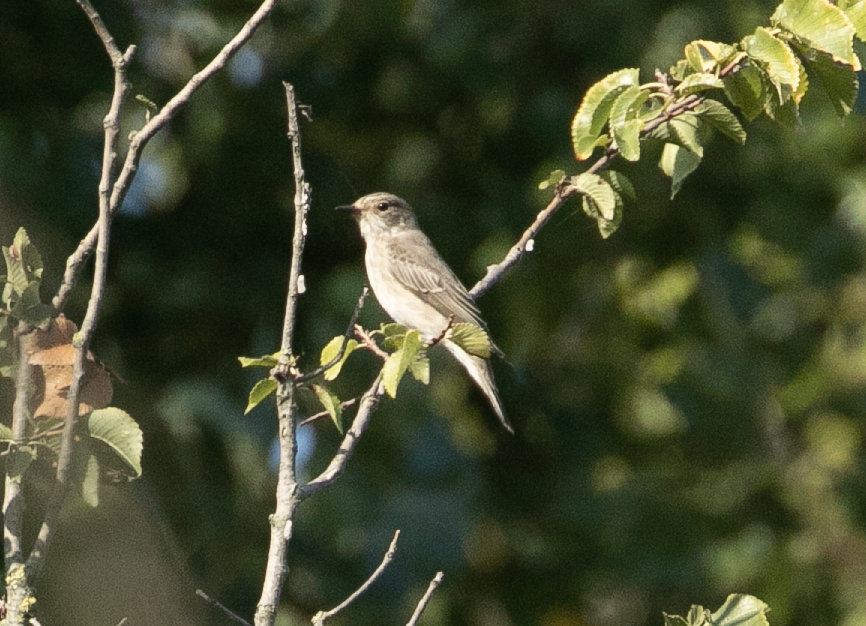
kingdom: Animalia
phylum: Chordata
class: Aves
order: Passeriformes
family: Muscicapidae
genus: Muscicapa
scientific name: Muscicapa striata
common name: Spotted flycatcher
